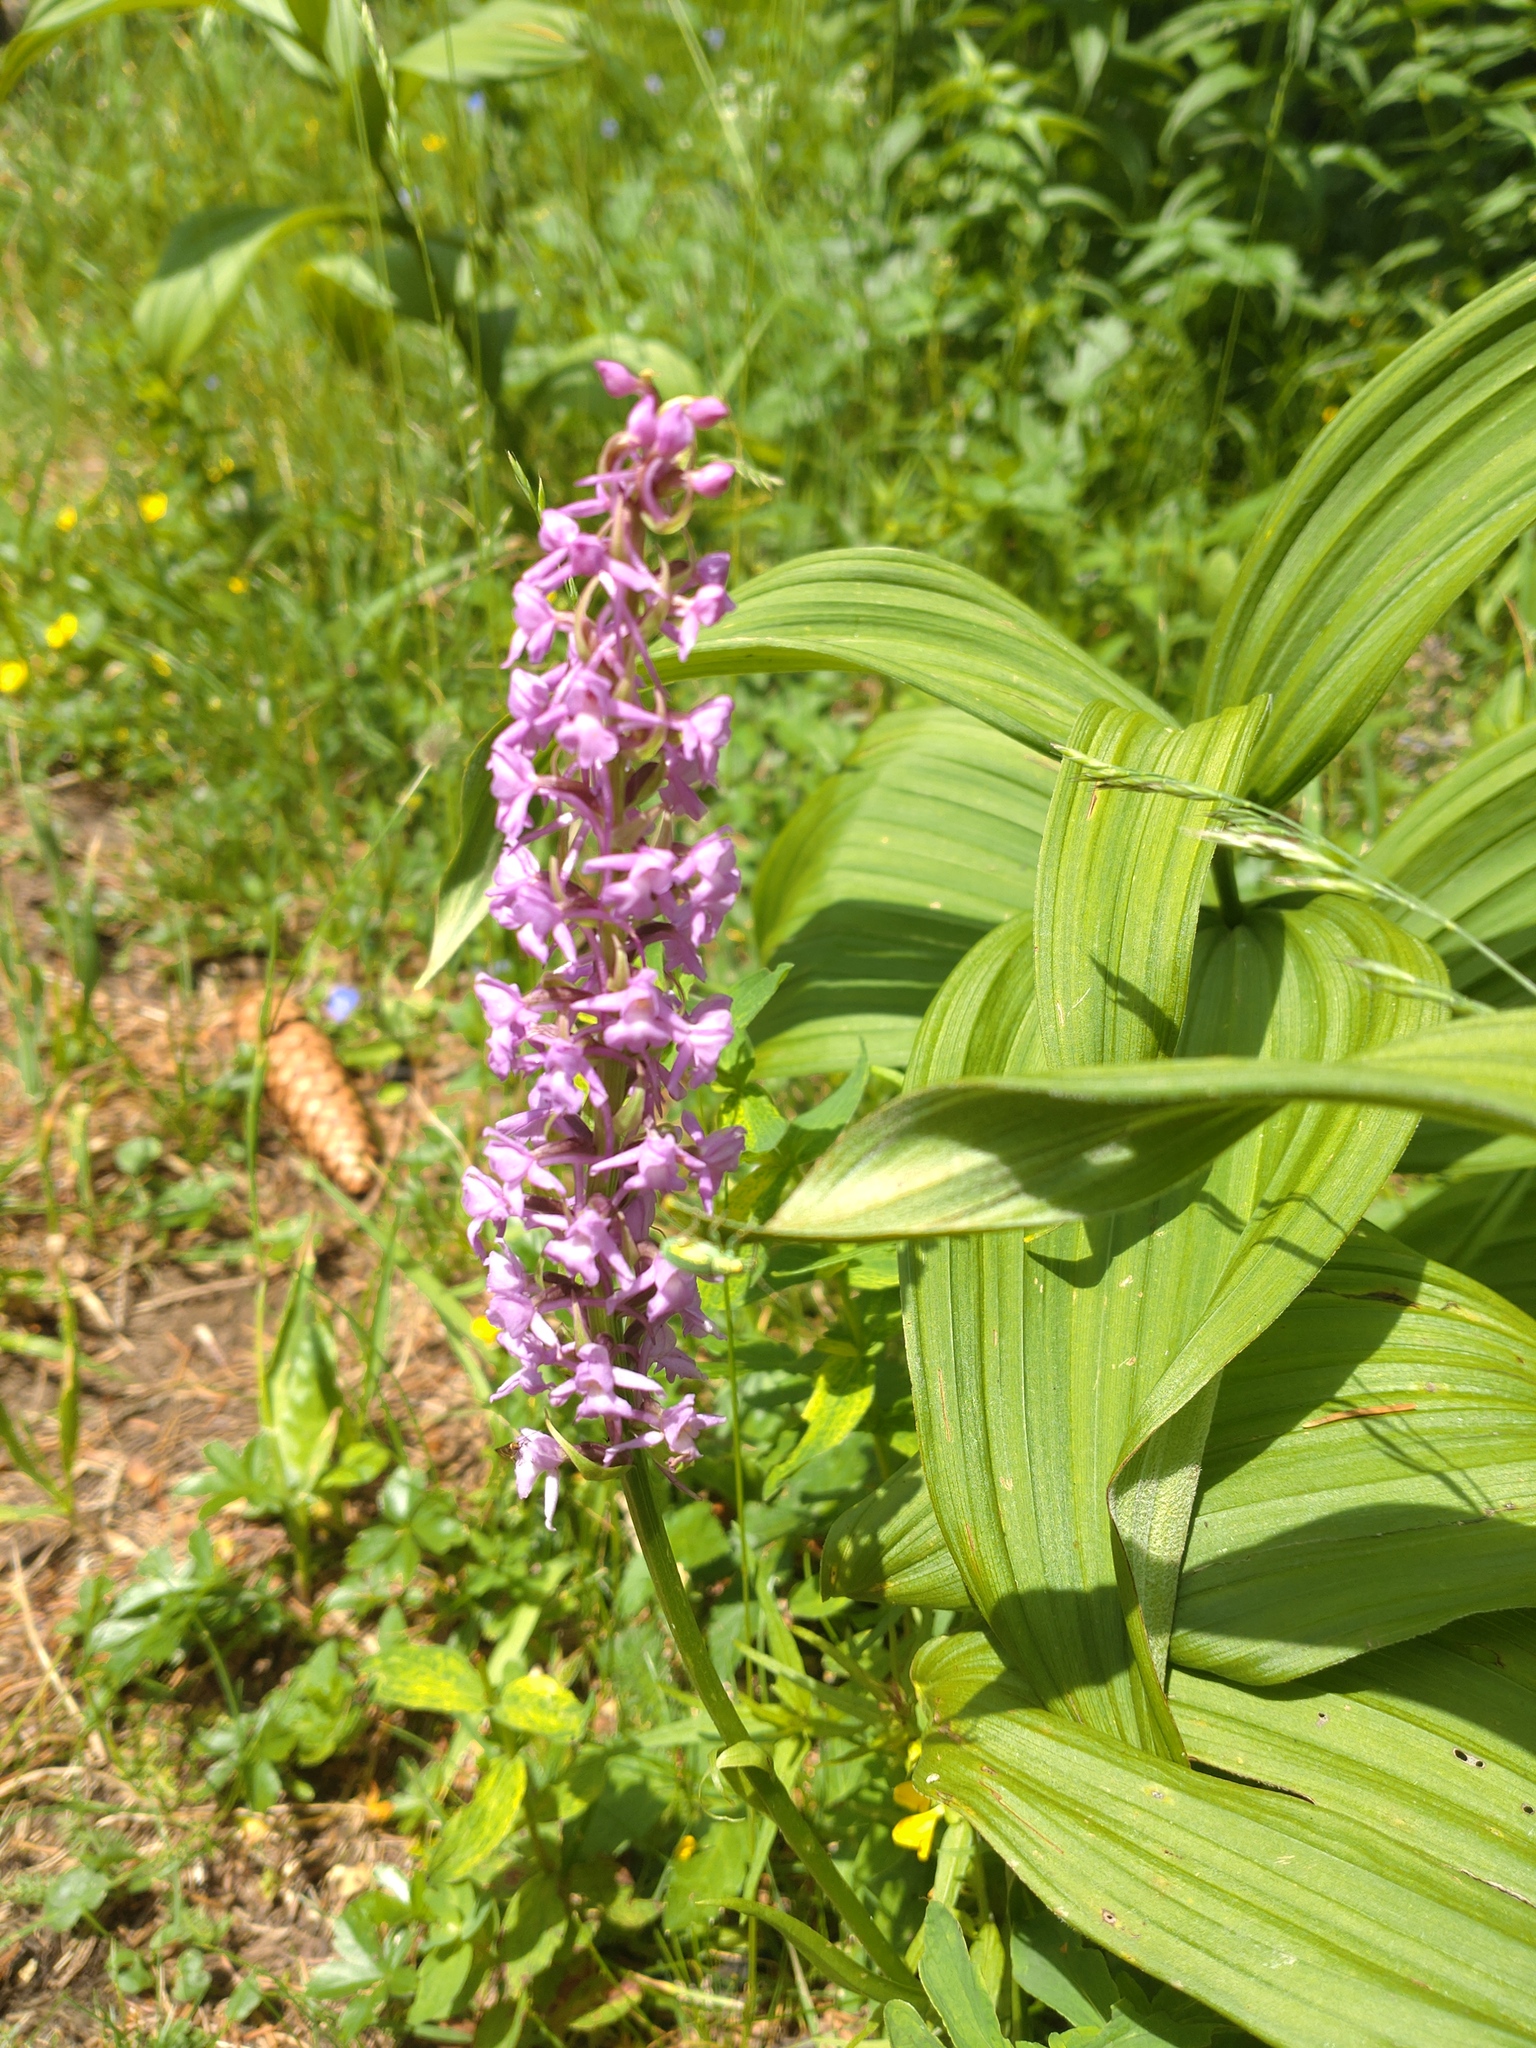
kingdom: Plantae
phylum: Tracheophyta
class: Liliopsida
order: Asparagales
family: Orchidaceae
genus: Gymnadenia
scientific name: Gymnadenia conopsea
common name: Fragrant orchid
